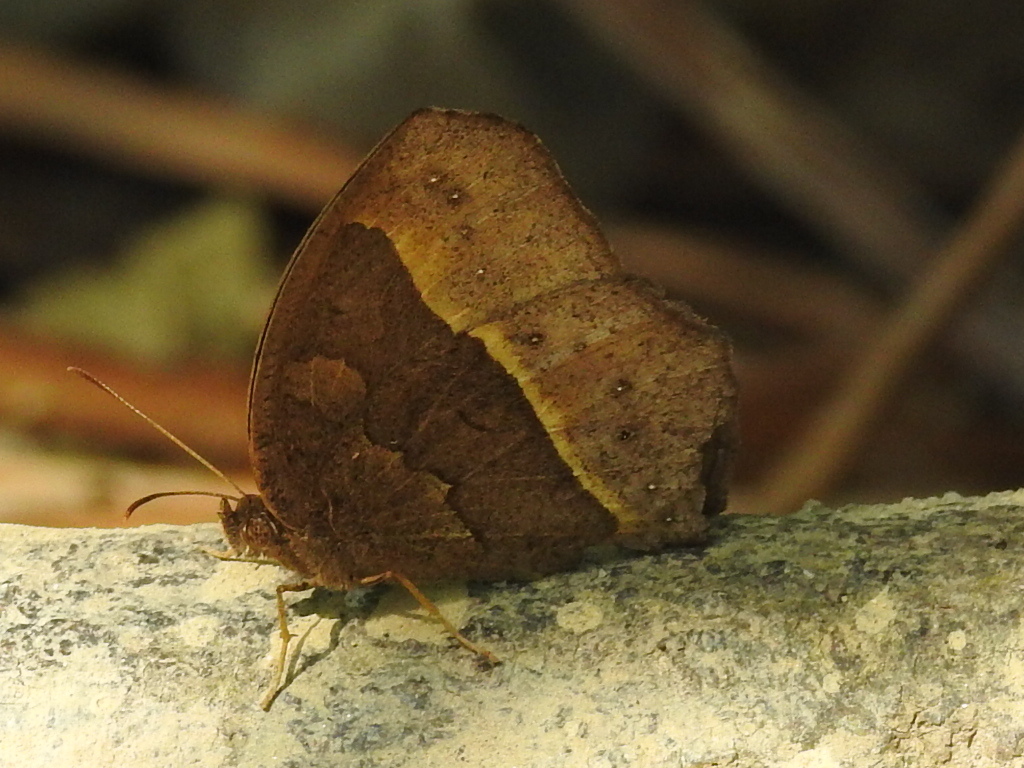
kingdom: Animalia
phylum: Arthropoda
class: Insecta
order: Lepidoptera
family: Nymphalidae
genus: Mycalesis
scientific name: Mycalesis horsfieldii
